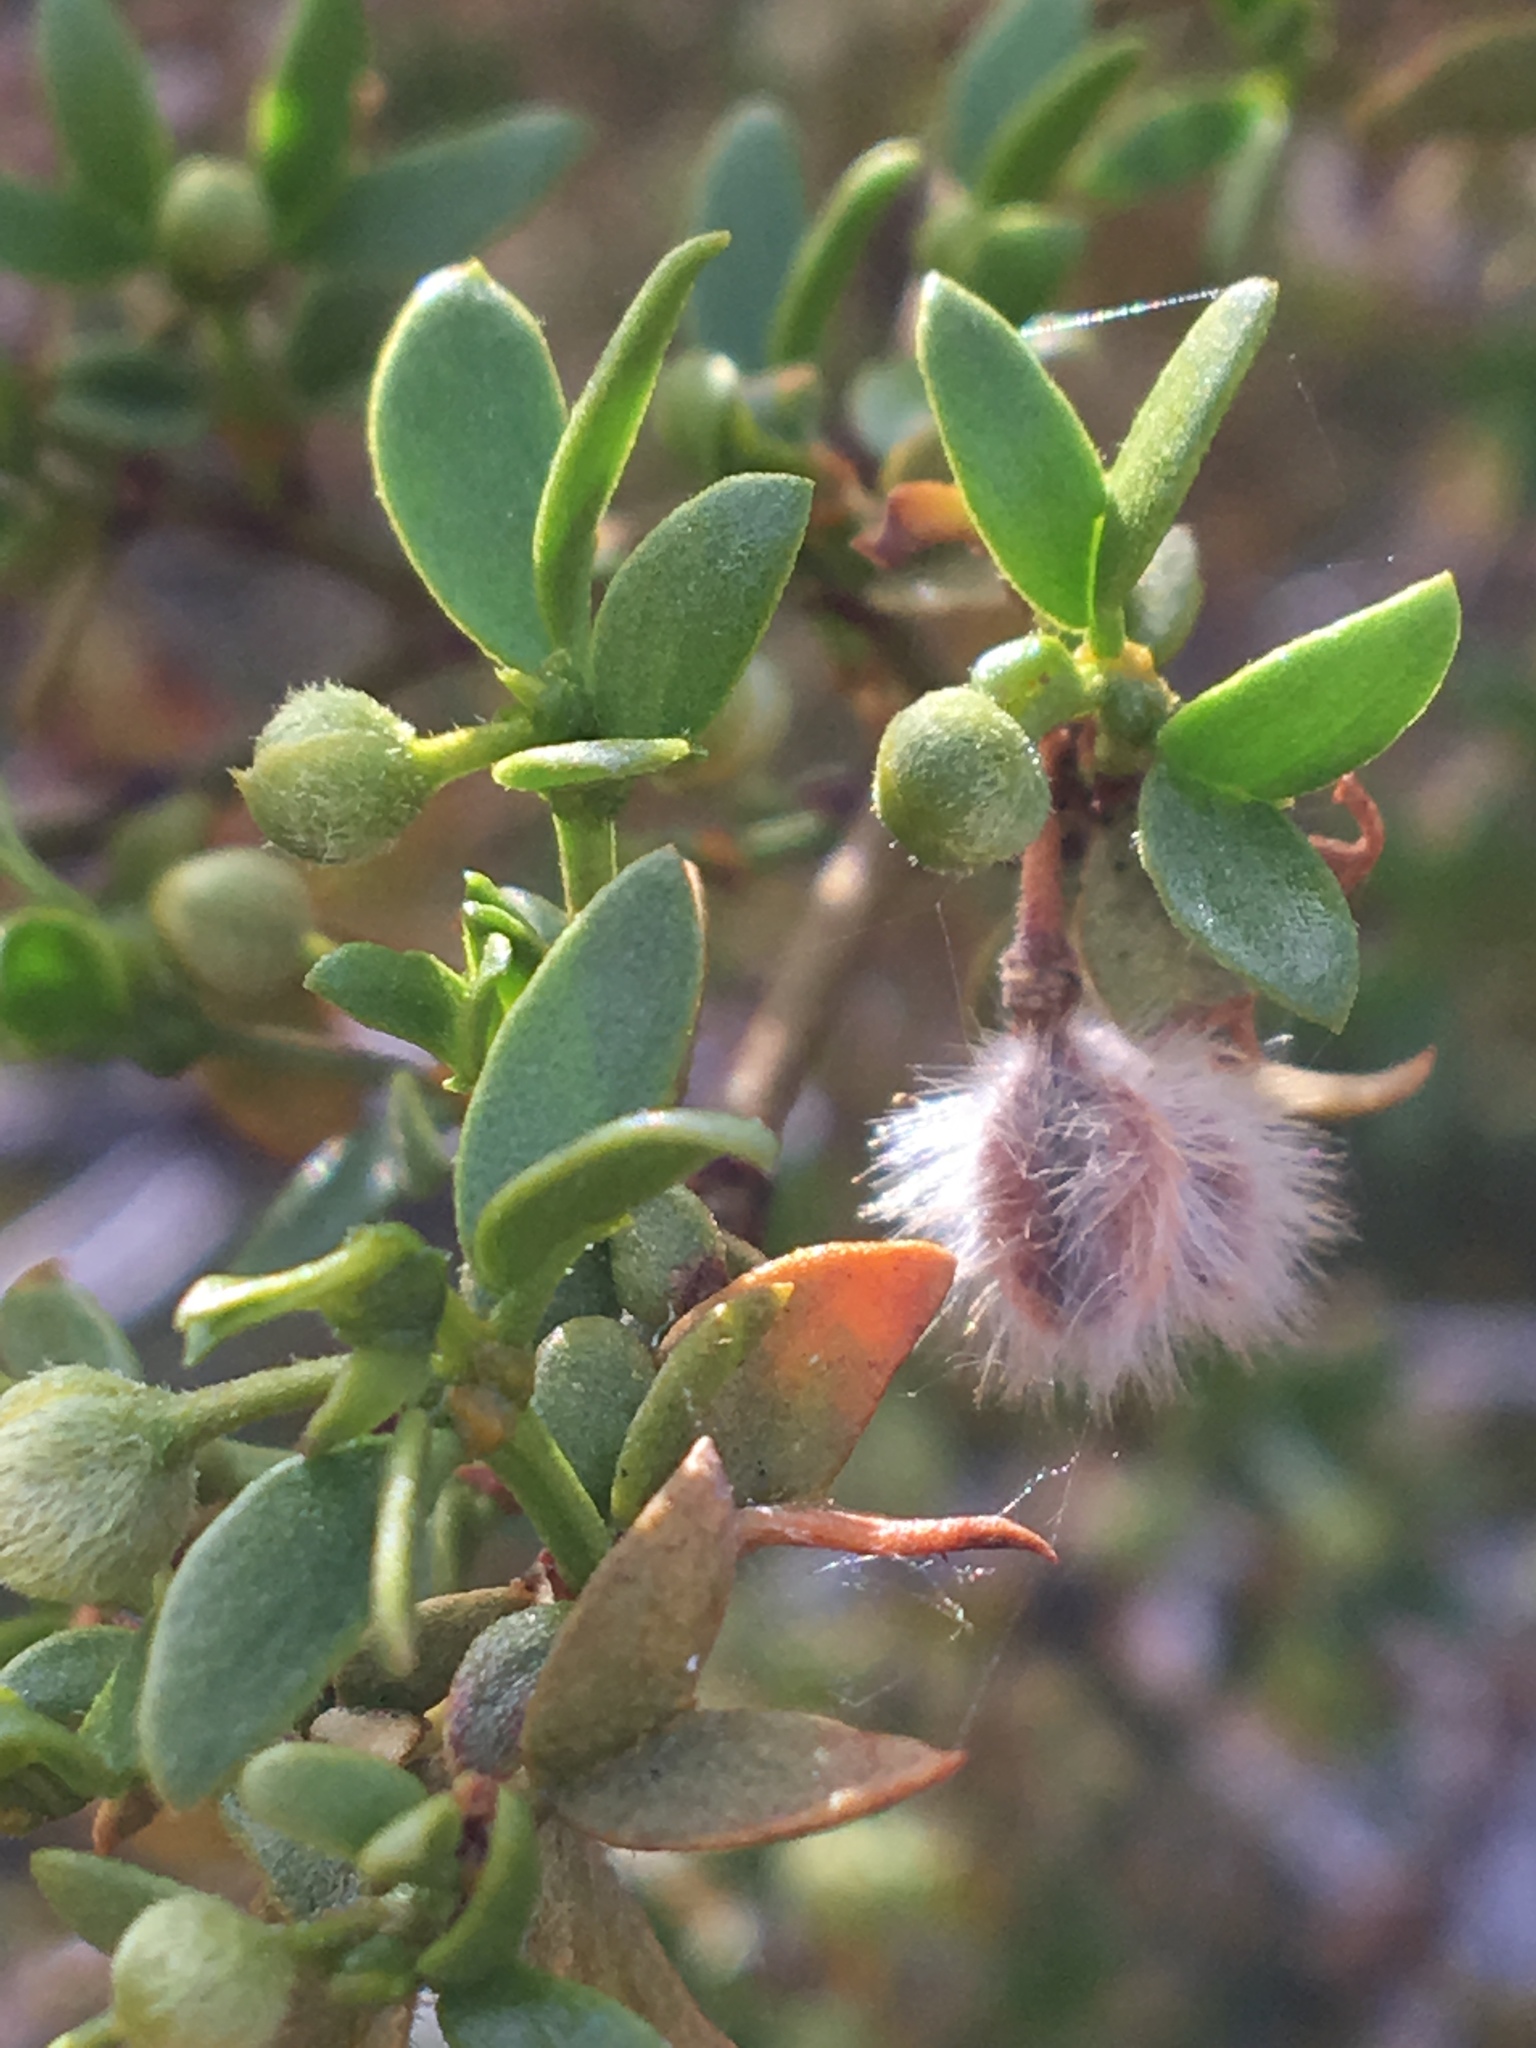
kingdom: Plantae
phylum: Tracheophyta
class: Magnoliopsida
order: Zygophyllales
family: Zygophyllaceae
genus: Larrea
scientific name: Larrea tridentata
